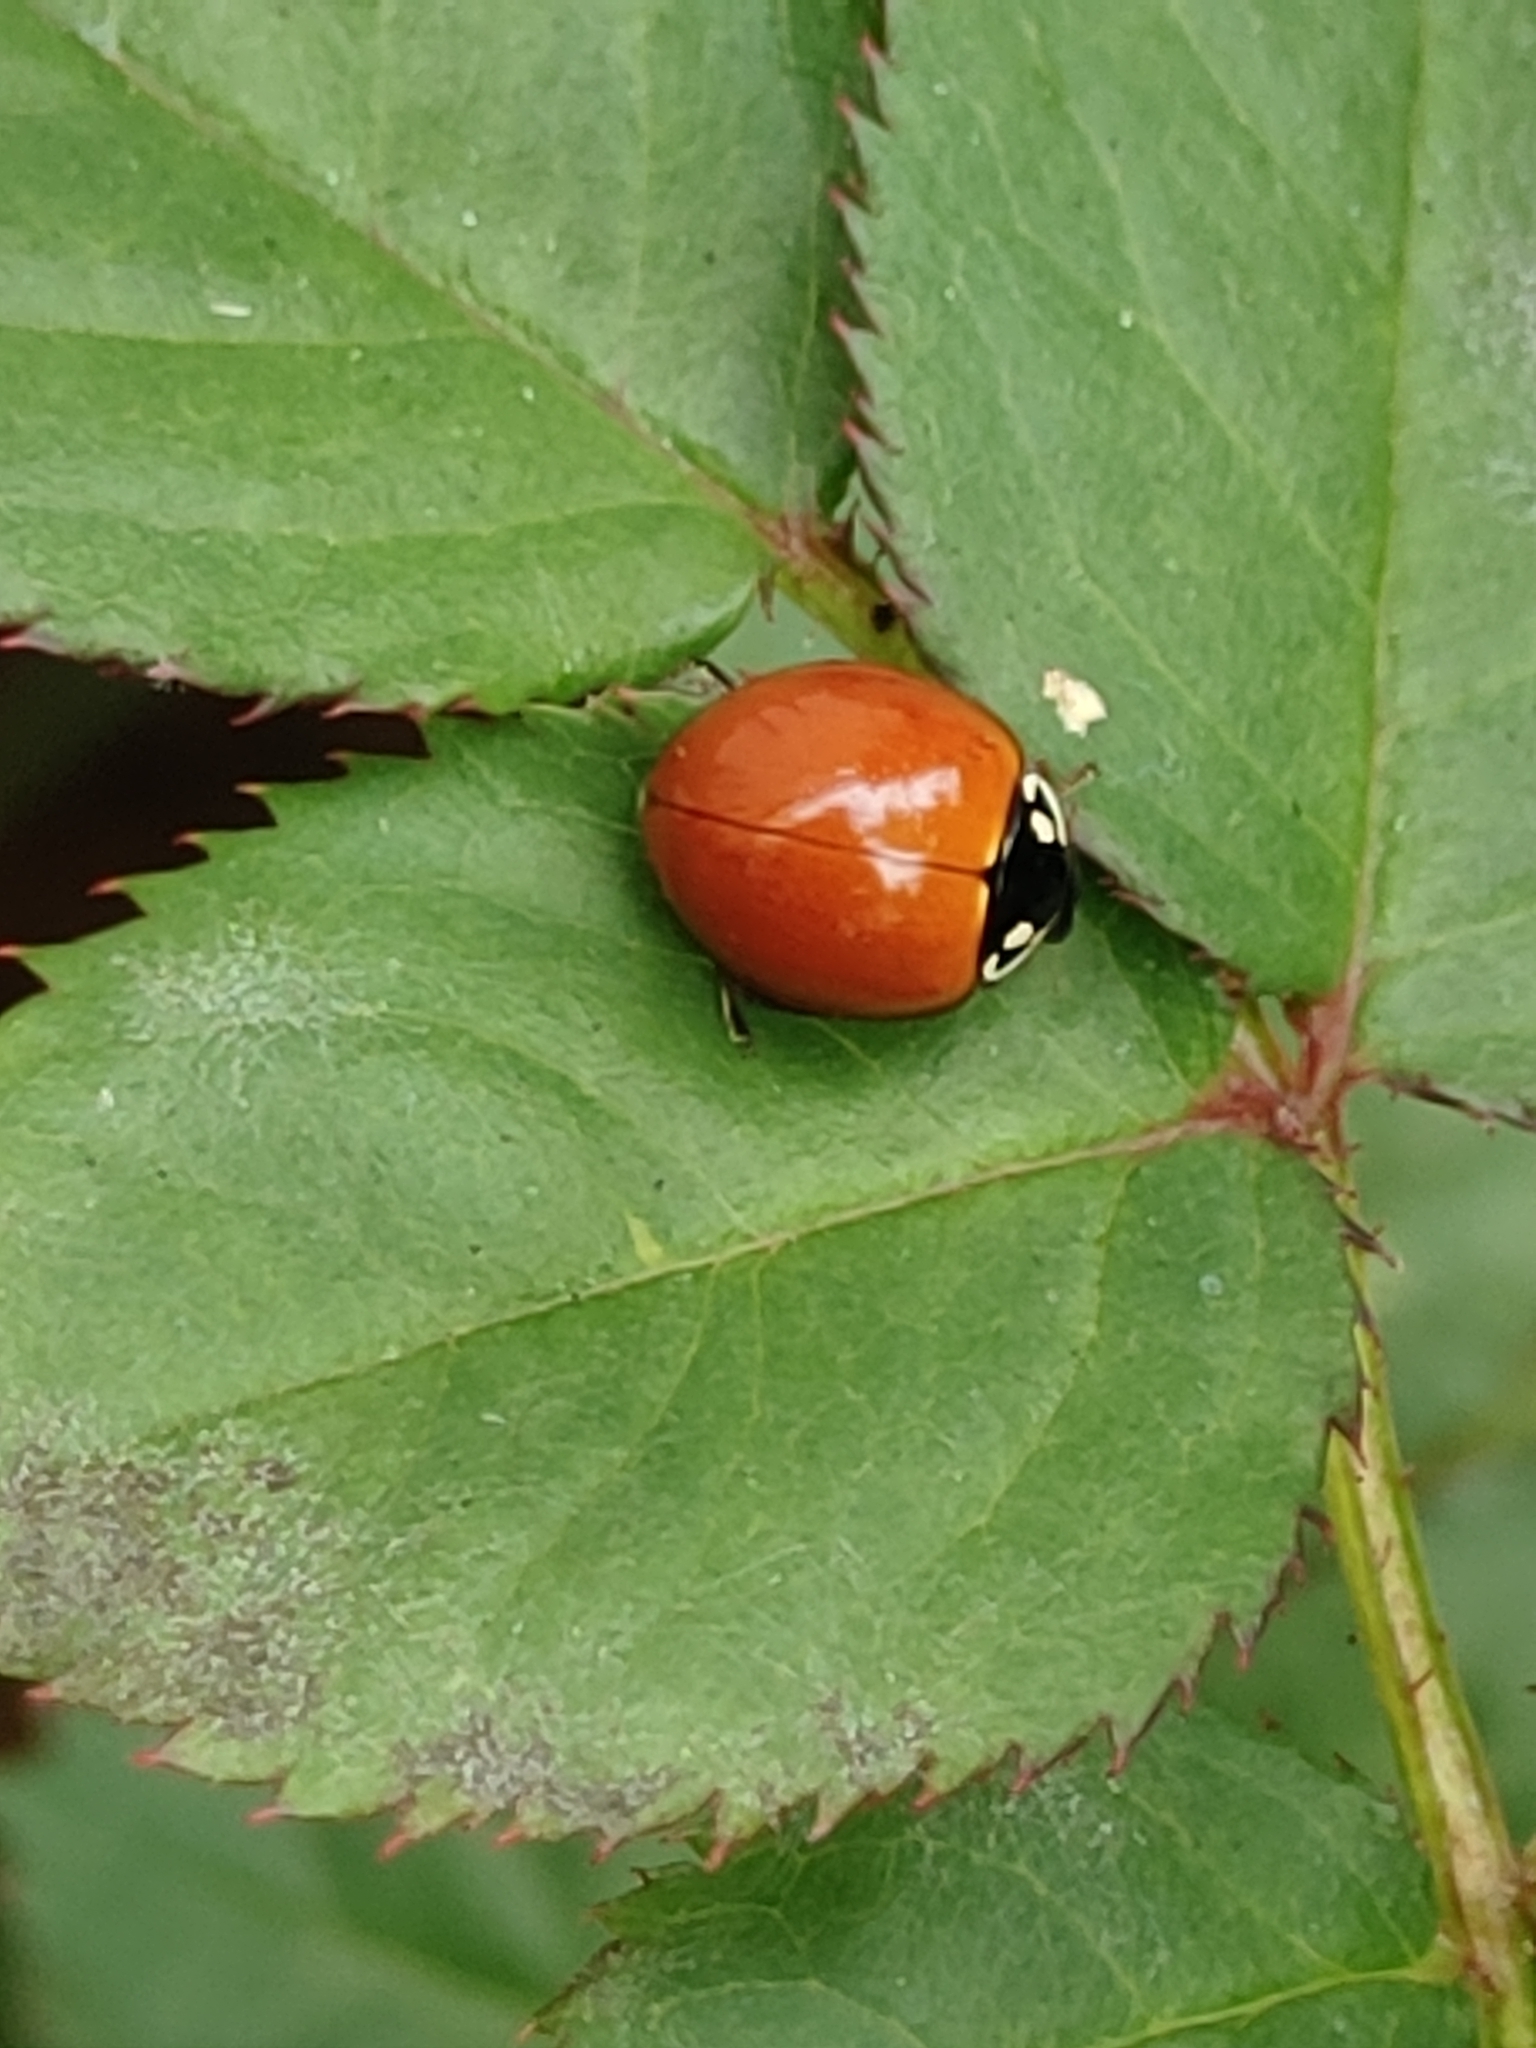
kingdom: Animalia
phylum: Arthropoda
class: Insecta
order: Coleoptera
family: Coccinellidae
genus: Cycloneda
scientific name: Cycloneda sanguinea
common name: Ladybird beetle
